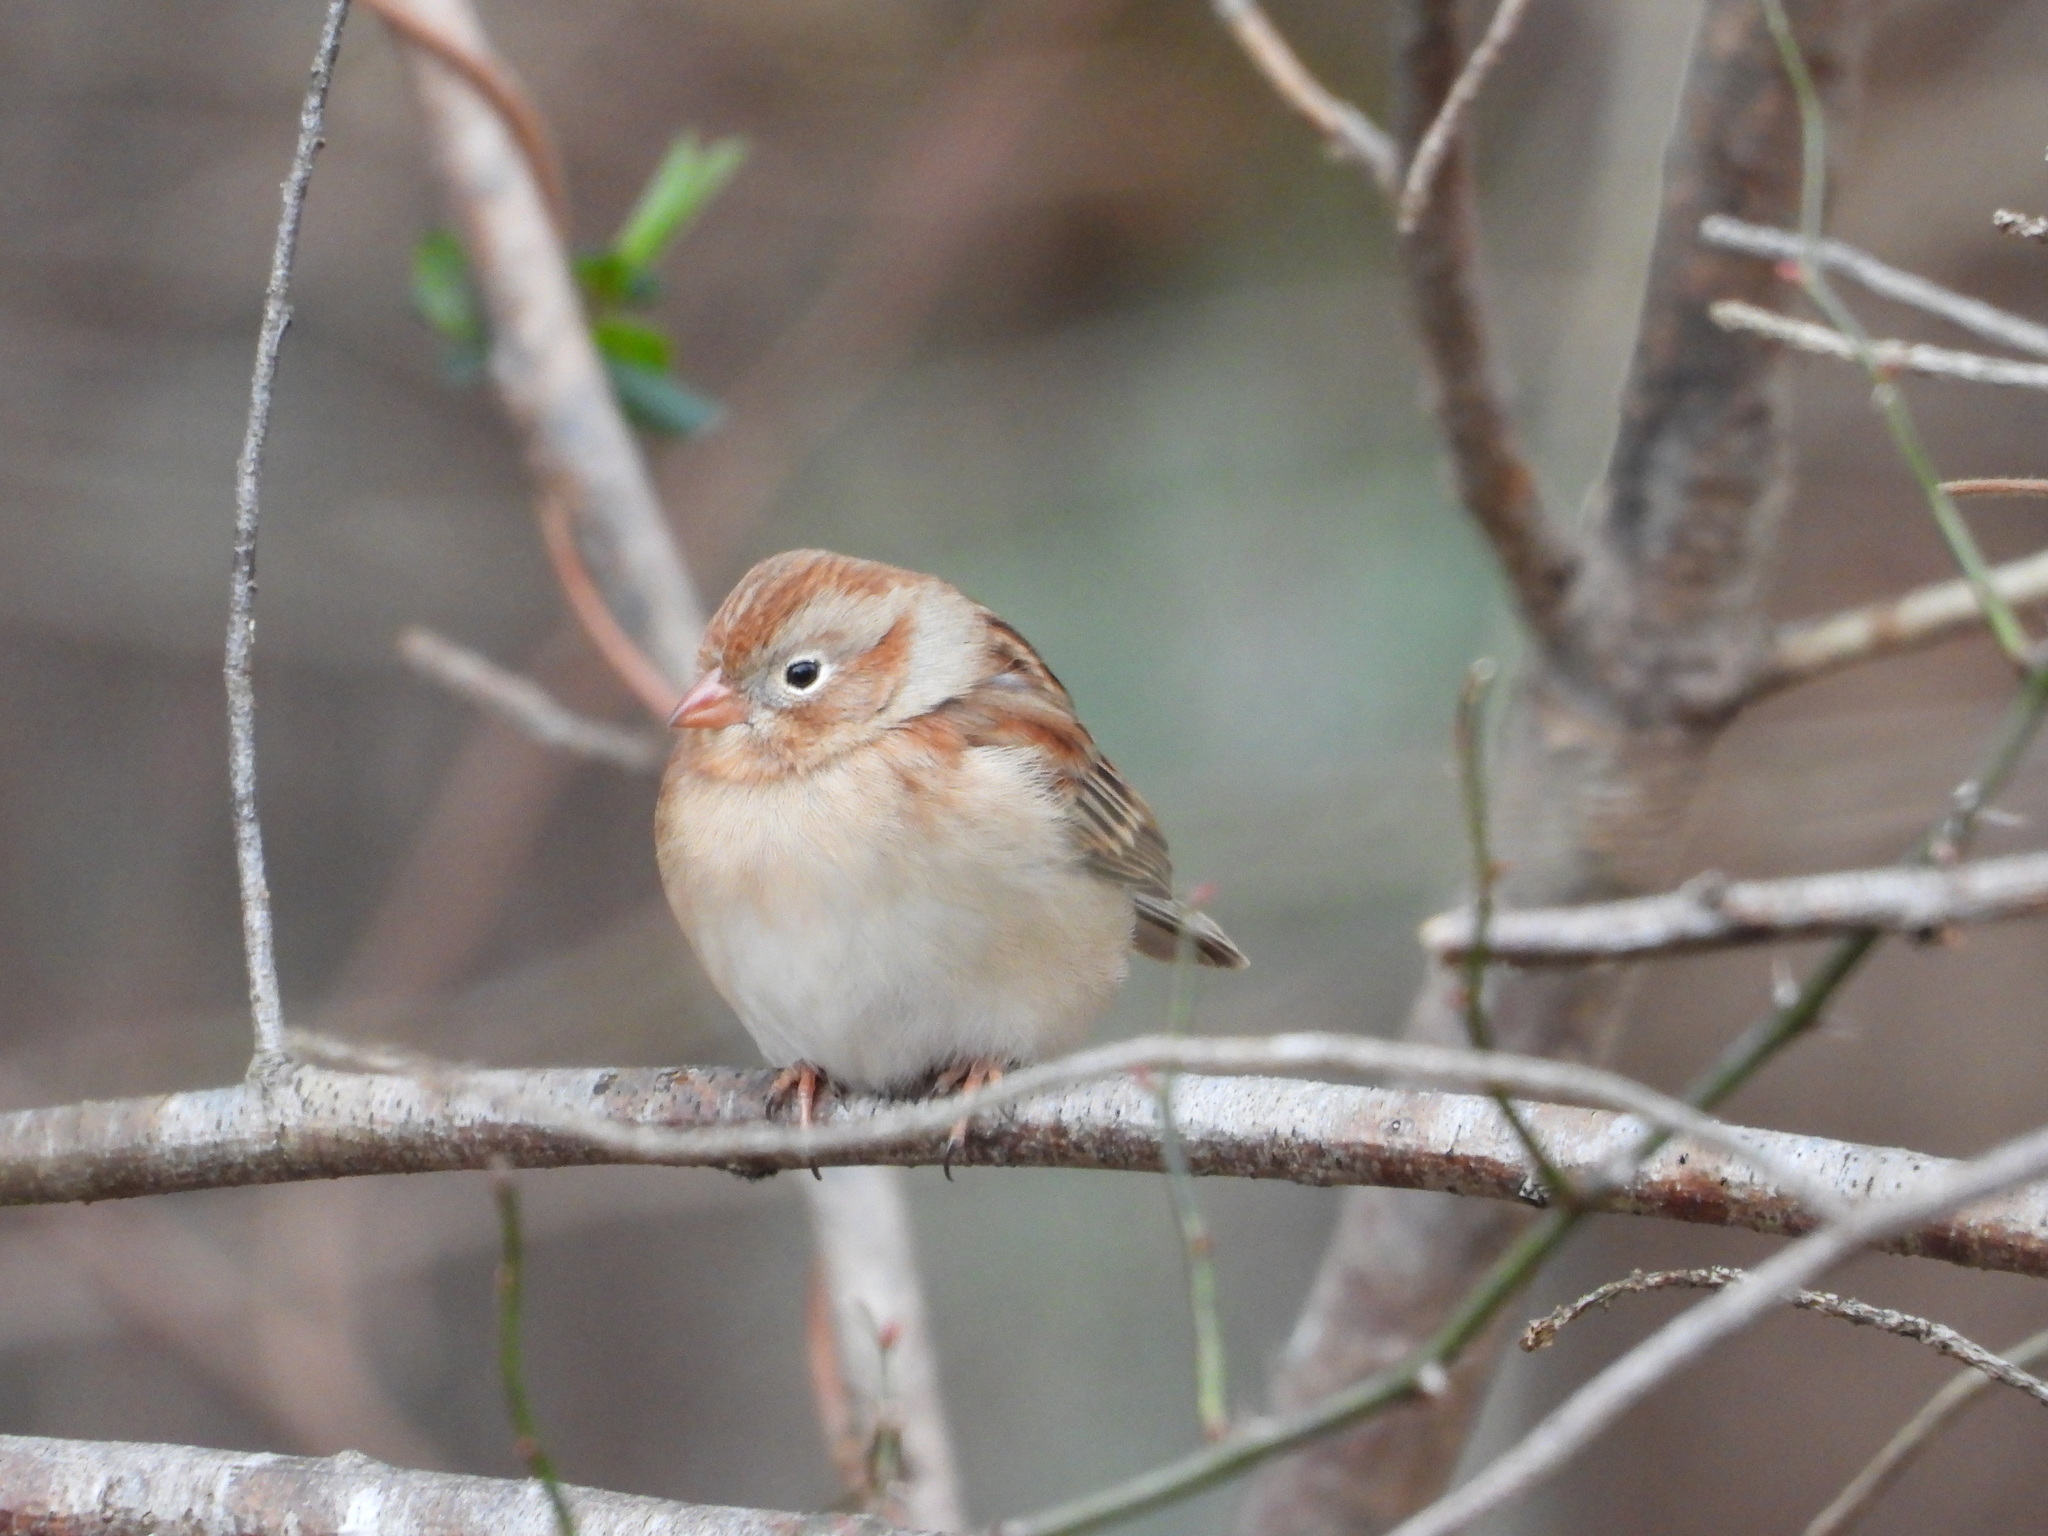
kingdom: Animalia
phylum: Chordata
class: Aves
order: Passeriformes
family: Passerellidae
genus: Spizella
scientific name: Spizella pusilla
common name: Field sparrow
